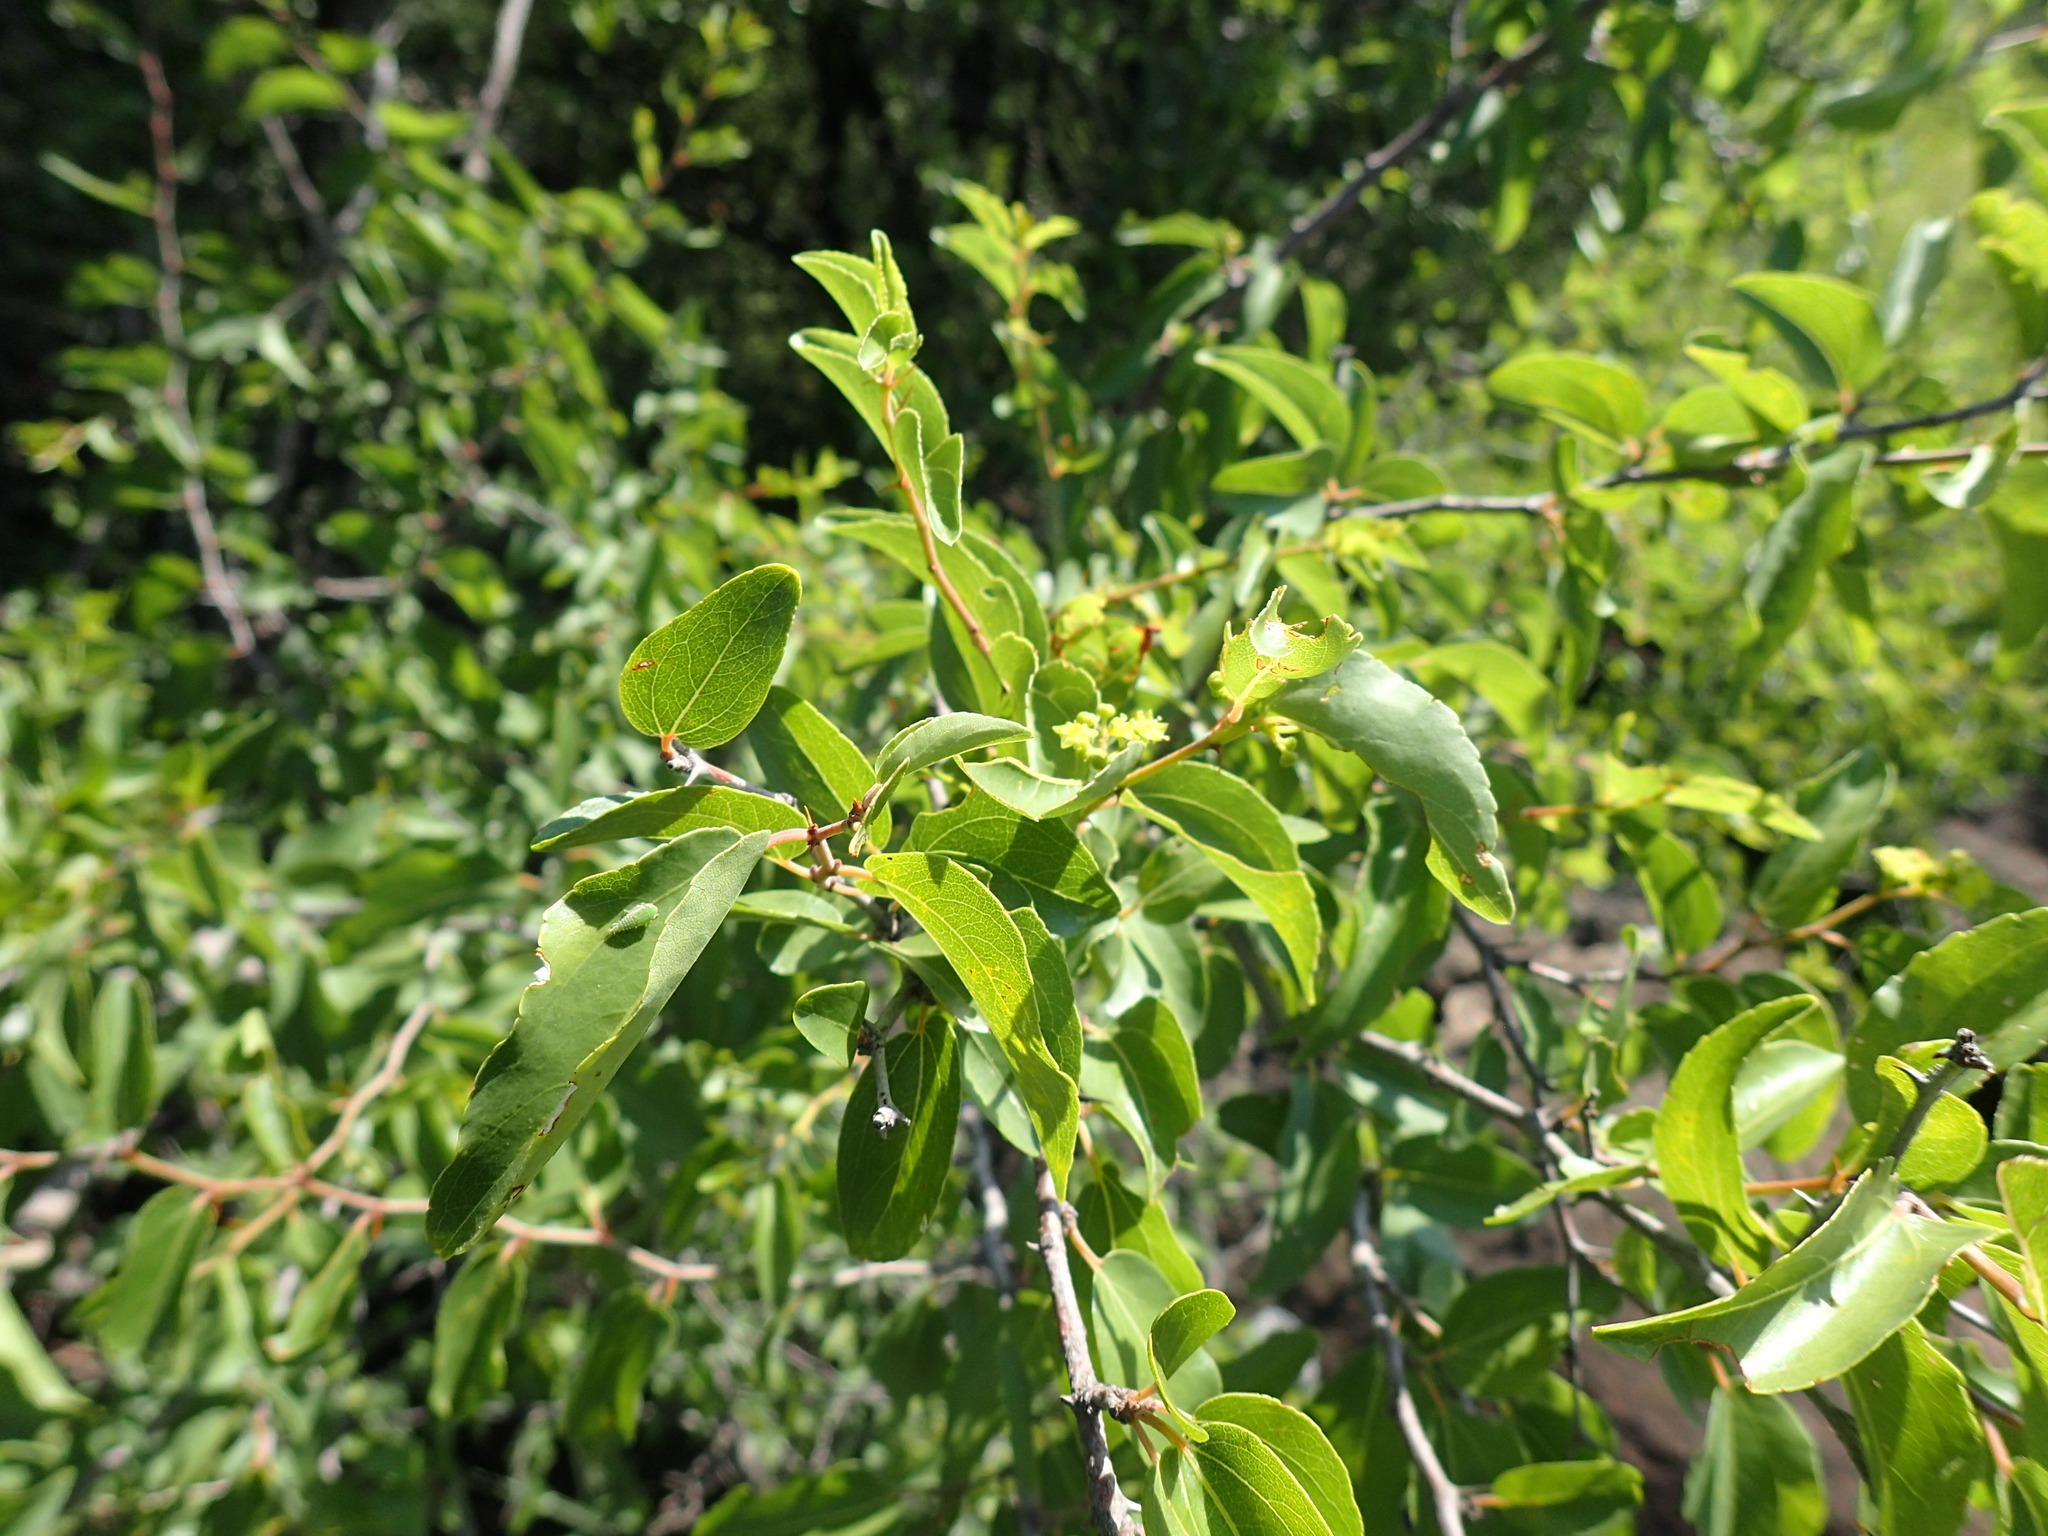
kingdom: Plantae
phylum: Tracheophyta
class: Magnoliopsida
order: Rosales
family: Rhamnaceae
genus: Ziziphus
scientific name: Ziziphus mucronata
